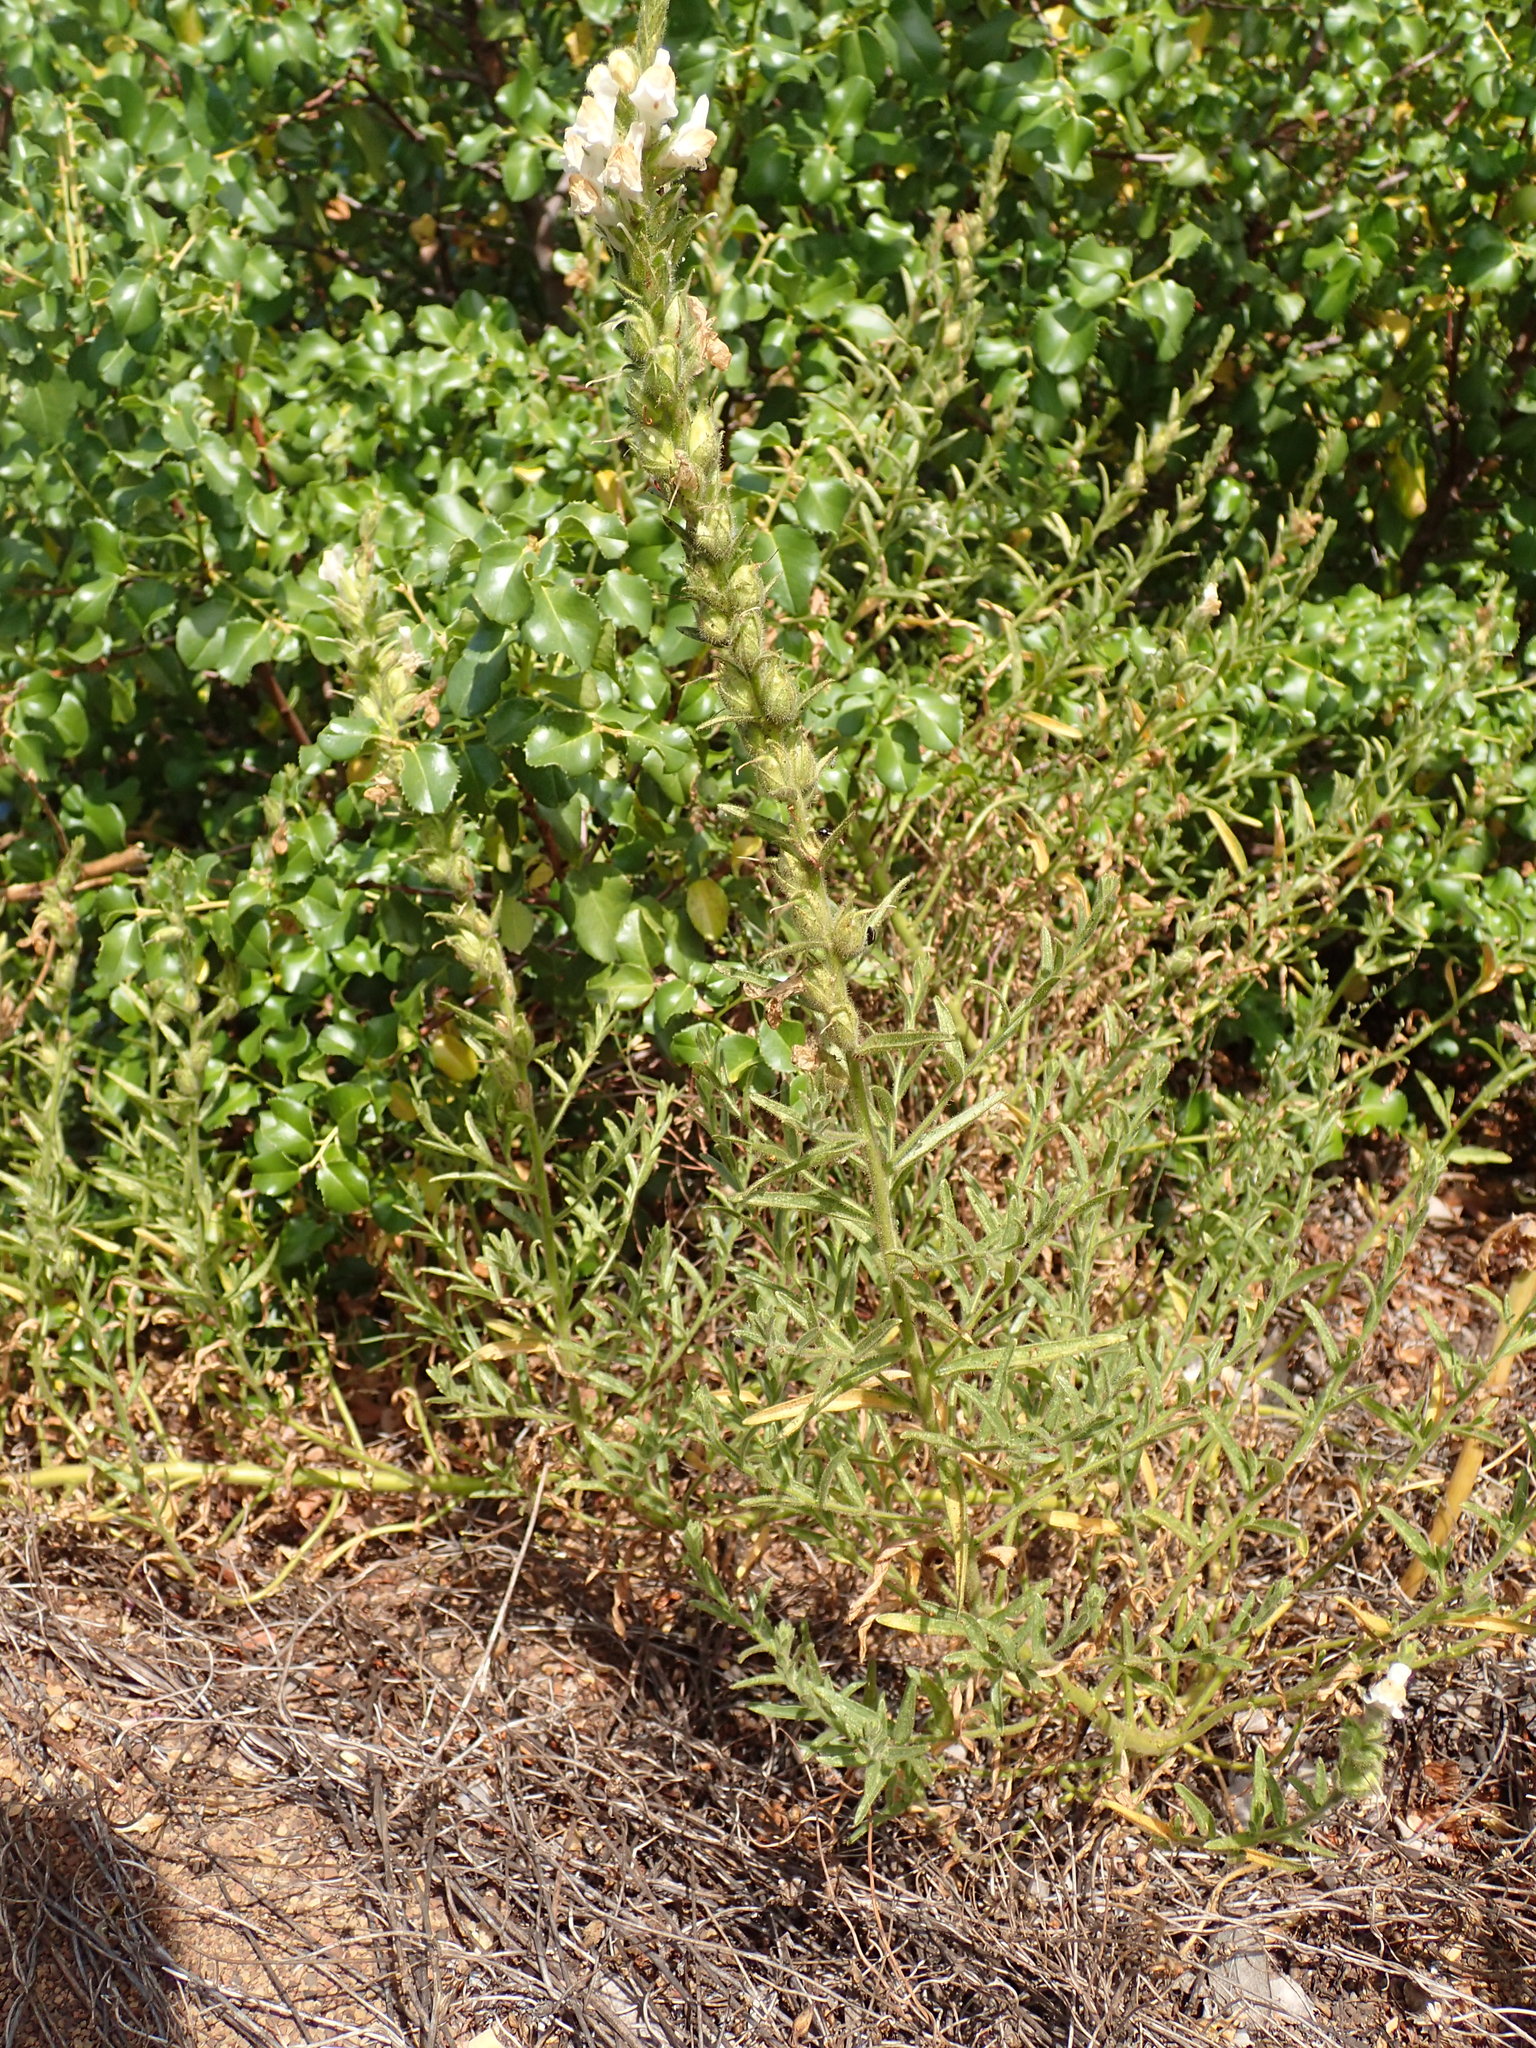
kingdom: Plantae
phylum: Tracheophyta
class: Magnoliopsida
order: Lamiales
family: Plantaginaceae
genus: Sairocarpus
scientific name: Sairocarpus multiflorus
